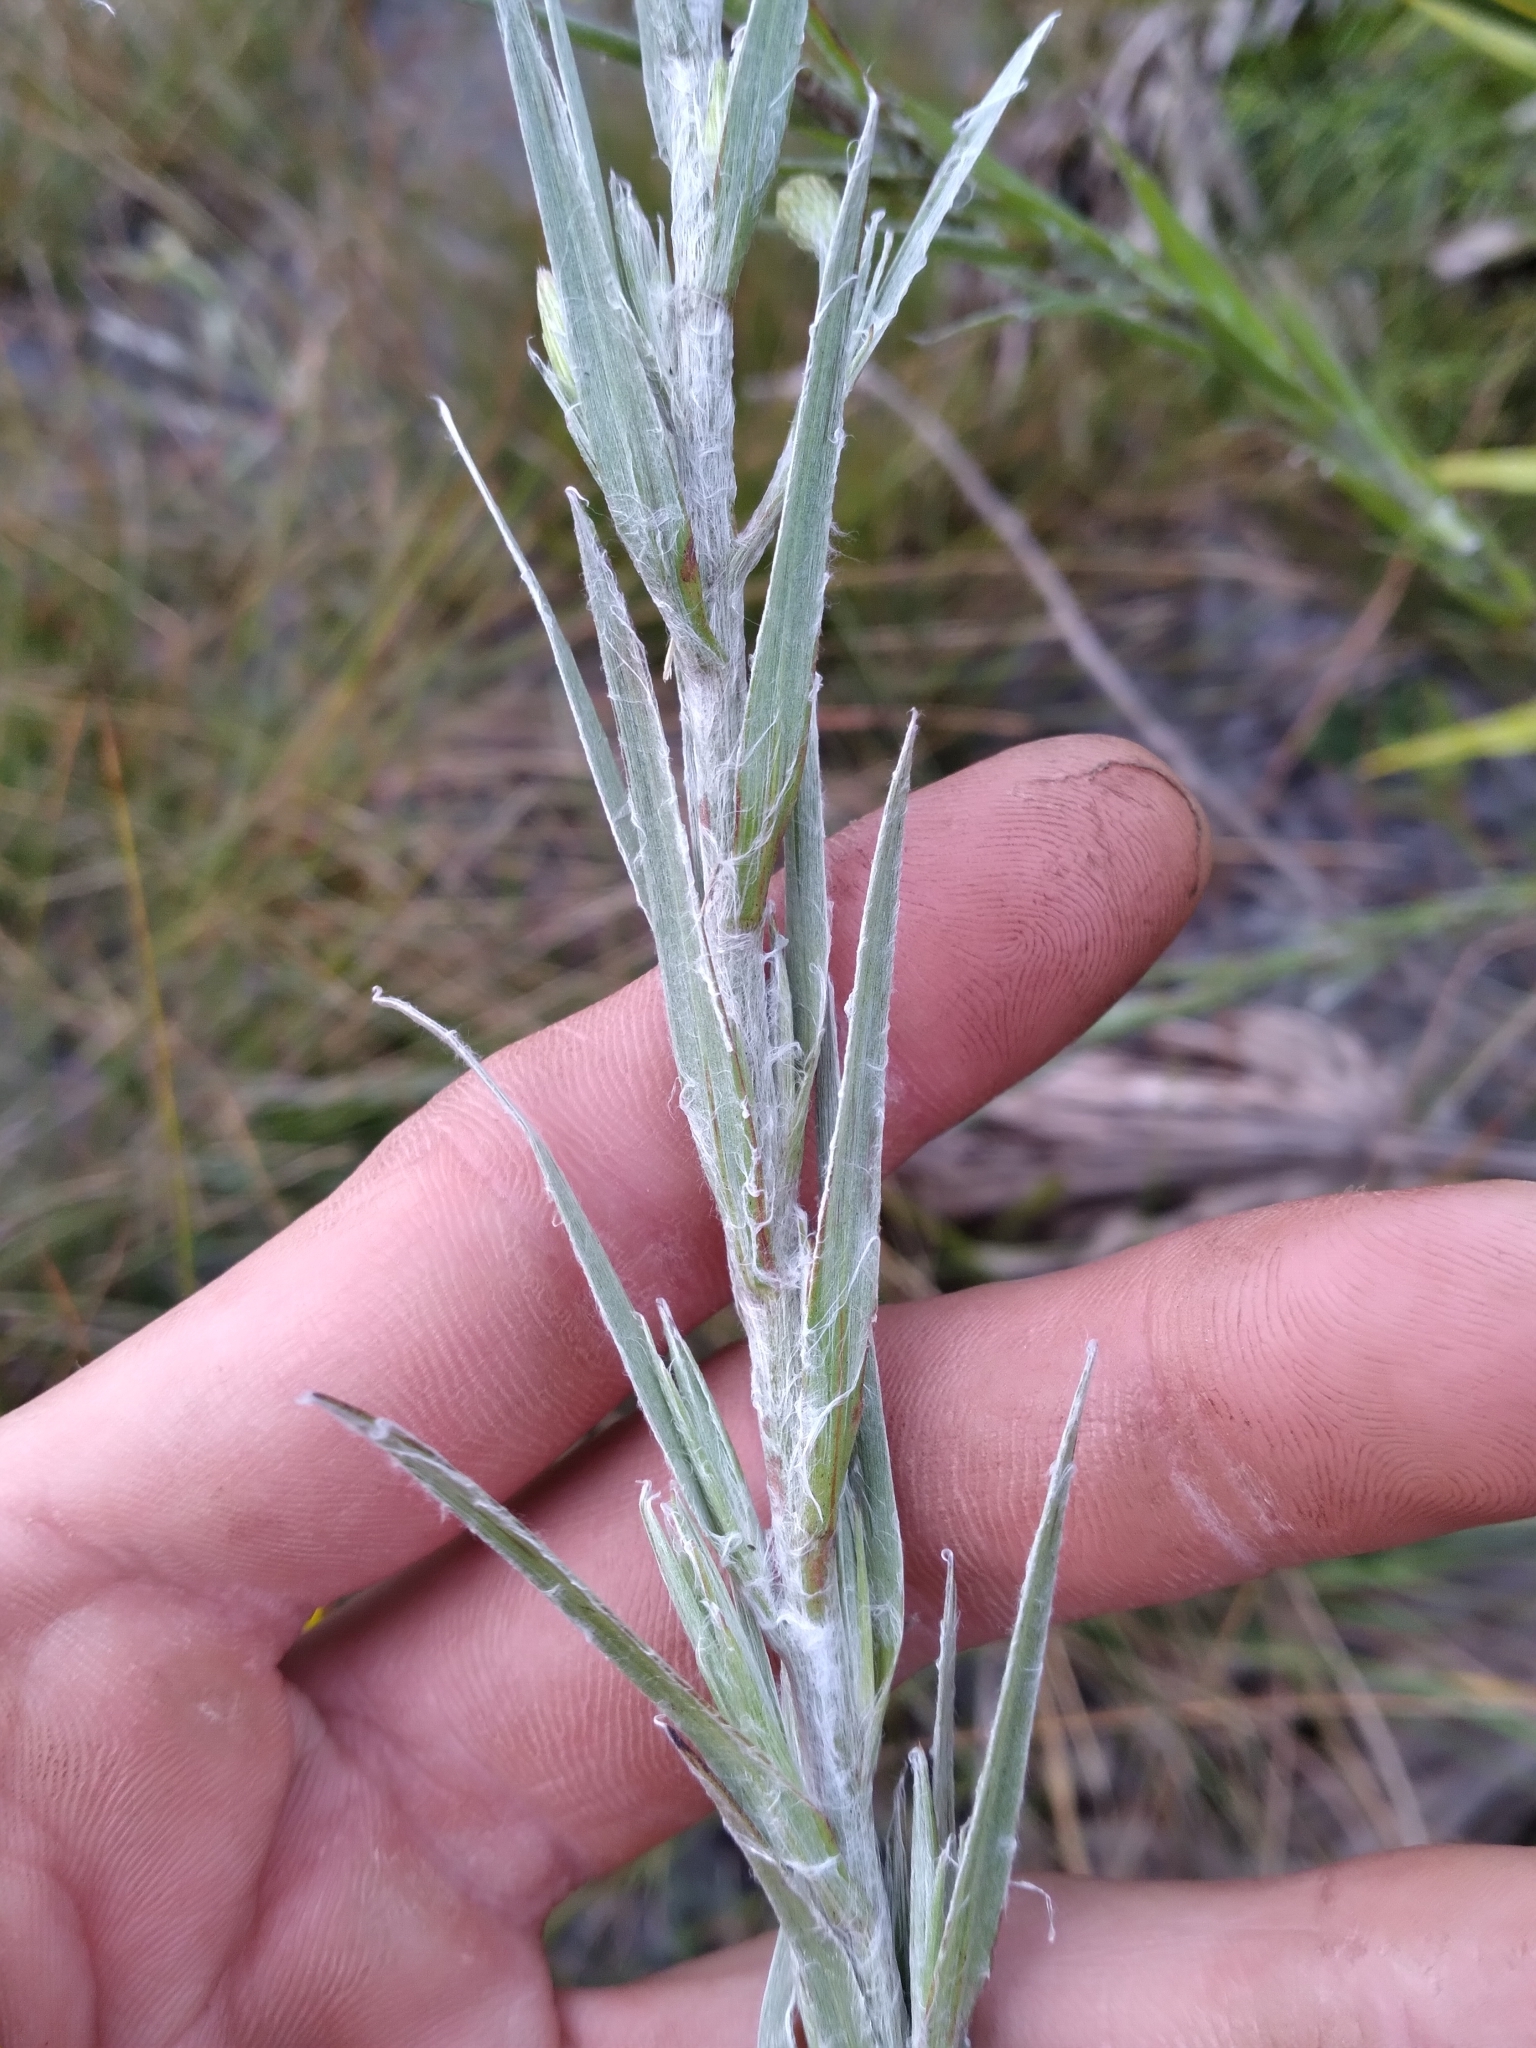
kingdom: Plantae
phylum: Tracheophyta
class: Magnoliopsida
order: Asterales
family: Asteraceae
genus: Pityopsis
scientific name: Pityopsis tracyi
